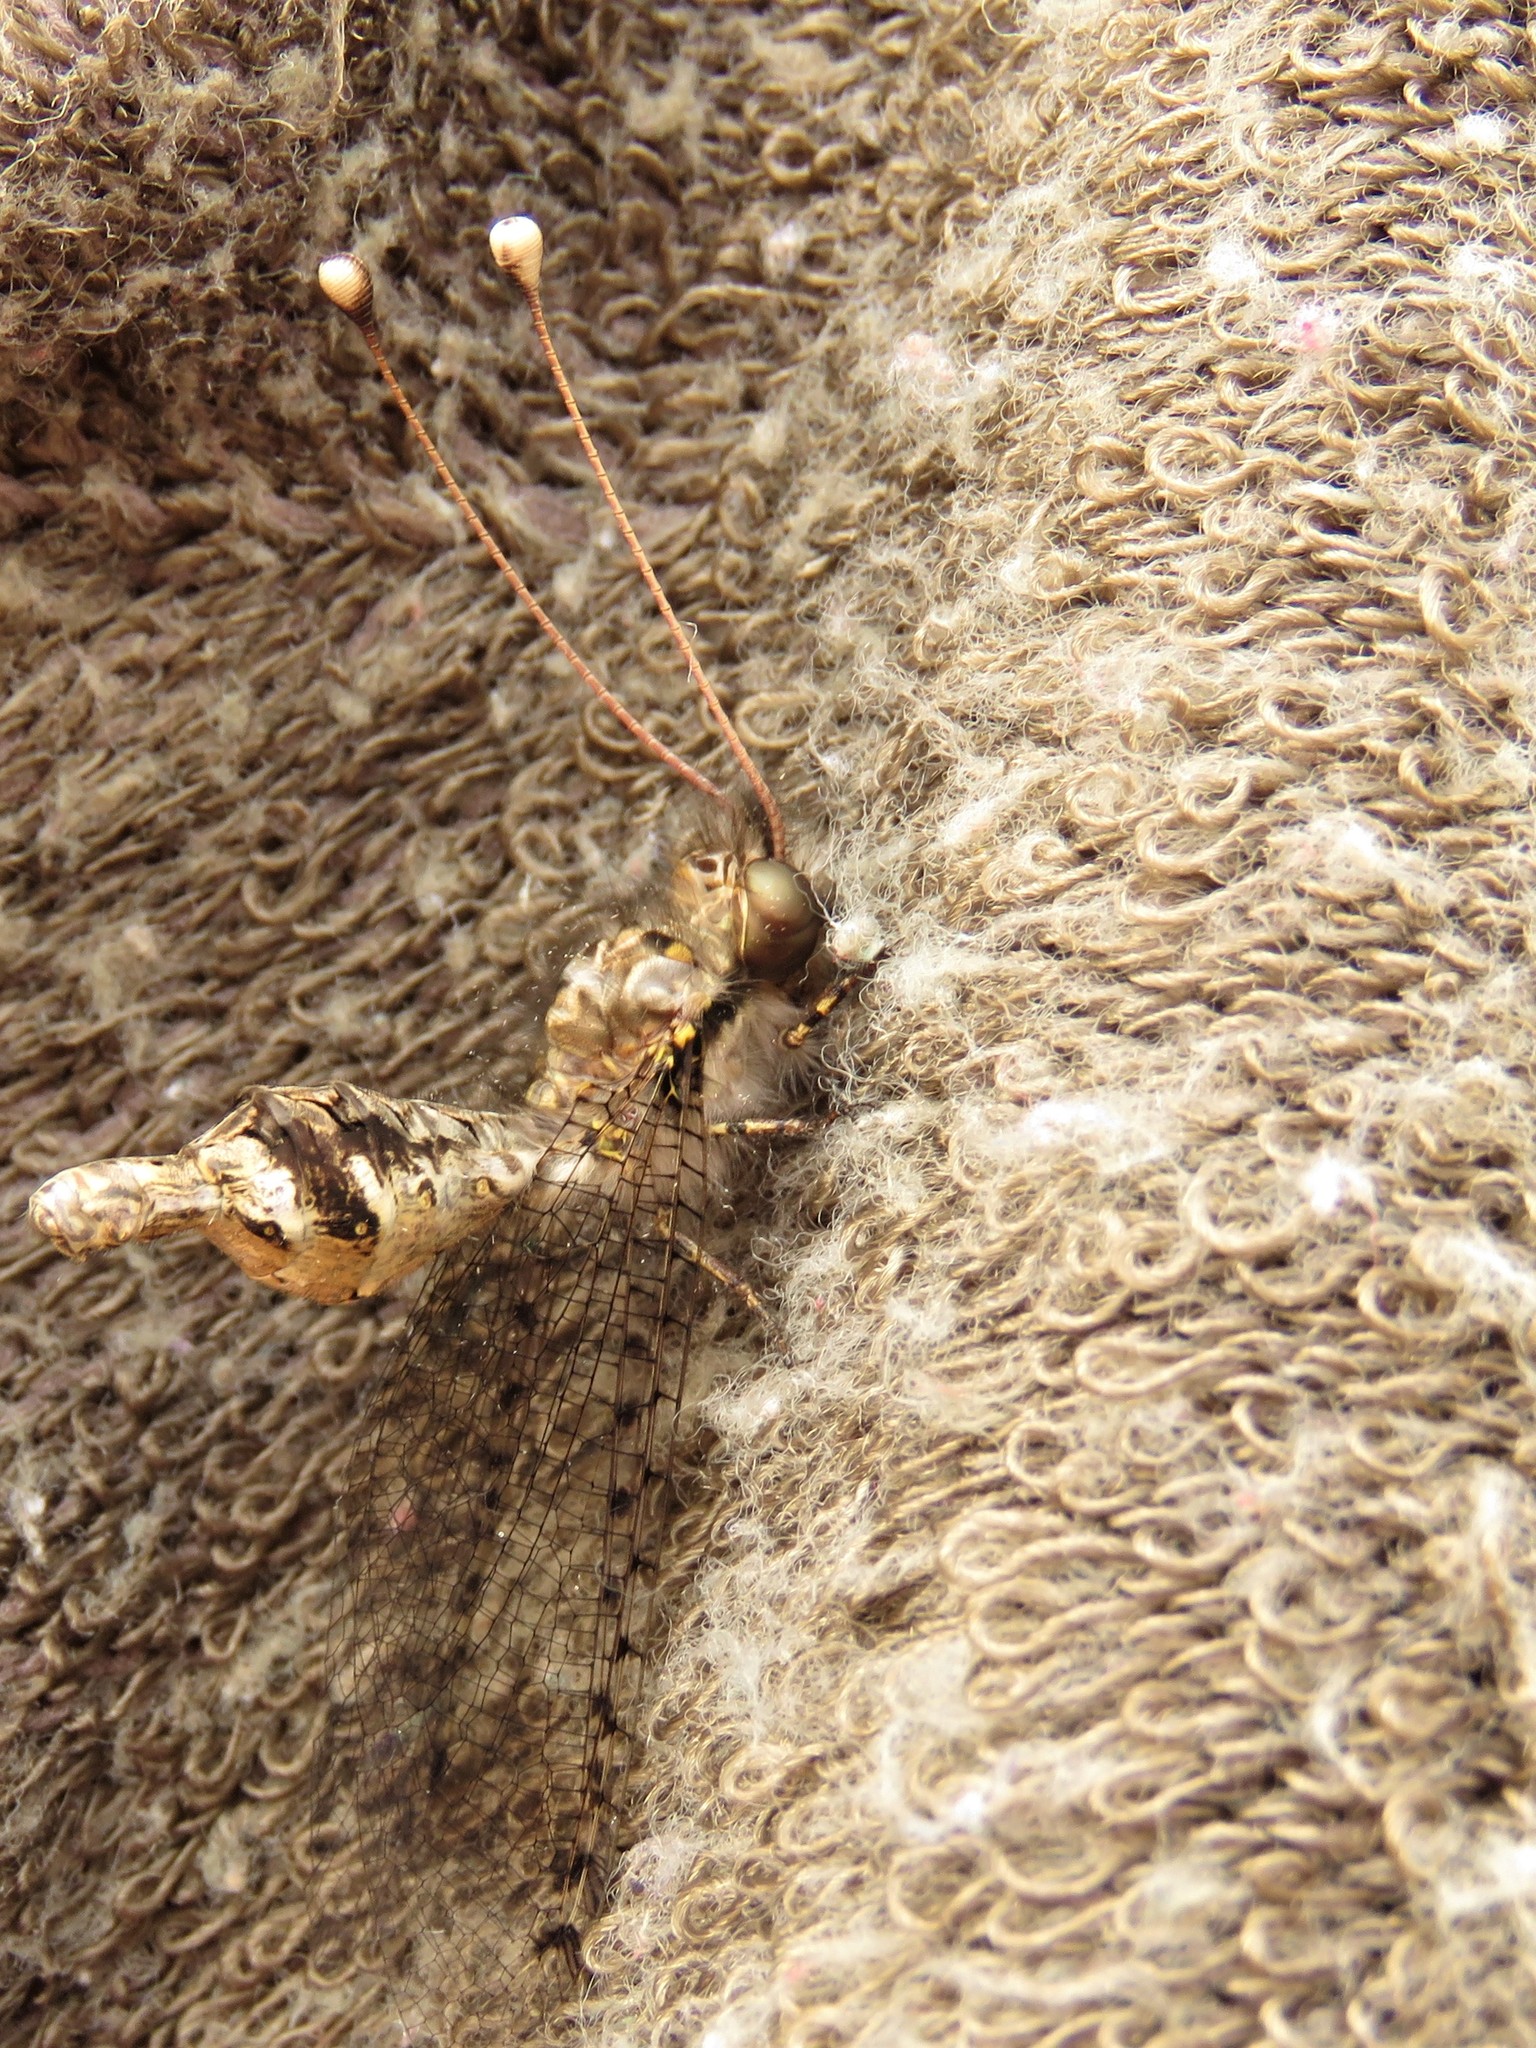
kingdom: Animalia
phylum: Arthropoda
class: Insecta
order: Neuroptera
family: Ascalaphidae
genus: Proctarrelabis
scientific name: Proctarrelabis capensis
